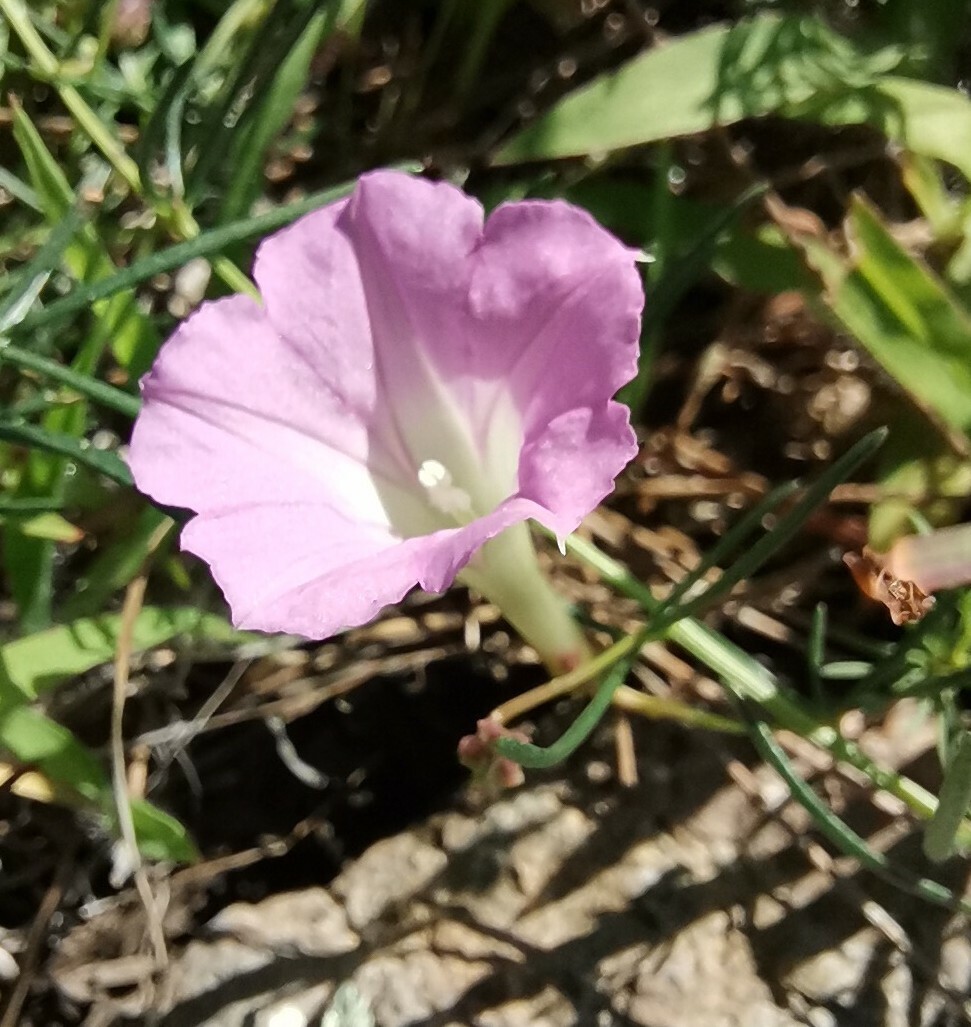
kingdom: Plantae
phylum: Tracheophyta
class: Magnoliopsida
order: Solanales
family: Convolvulaceae
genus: Ipomoea
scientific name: Ipomoea capillacea
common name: Purple morning-glory
